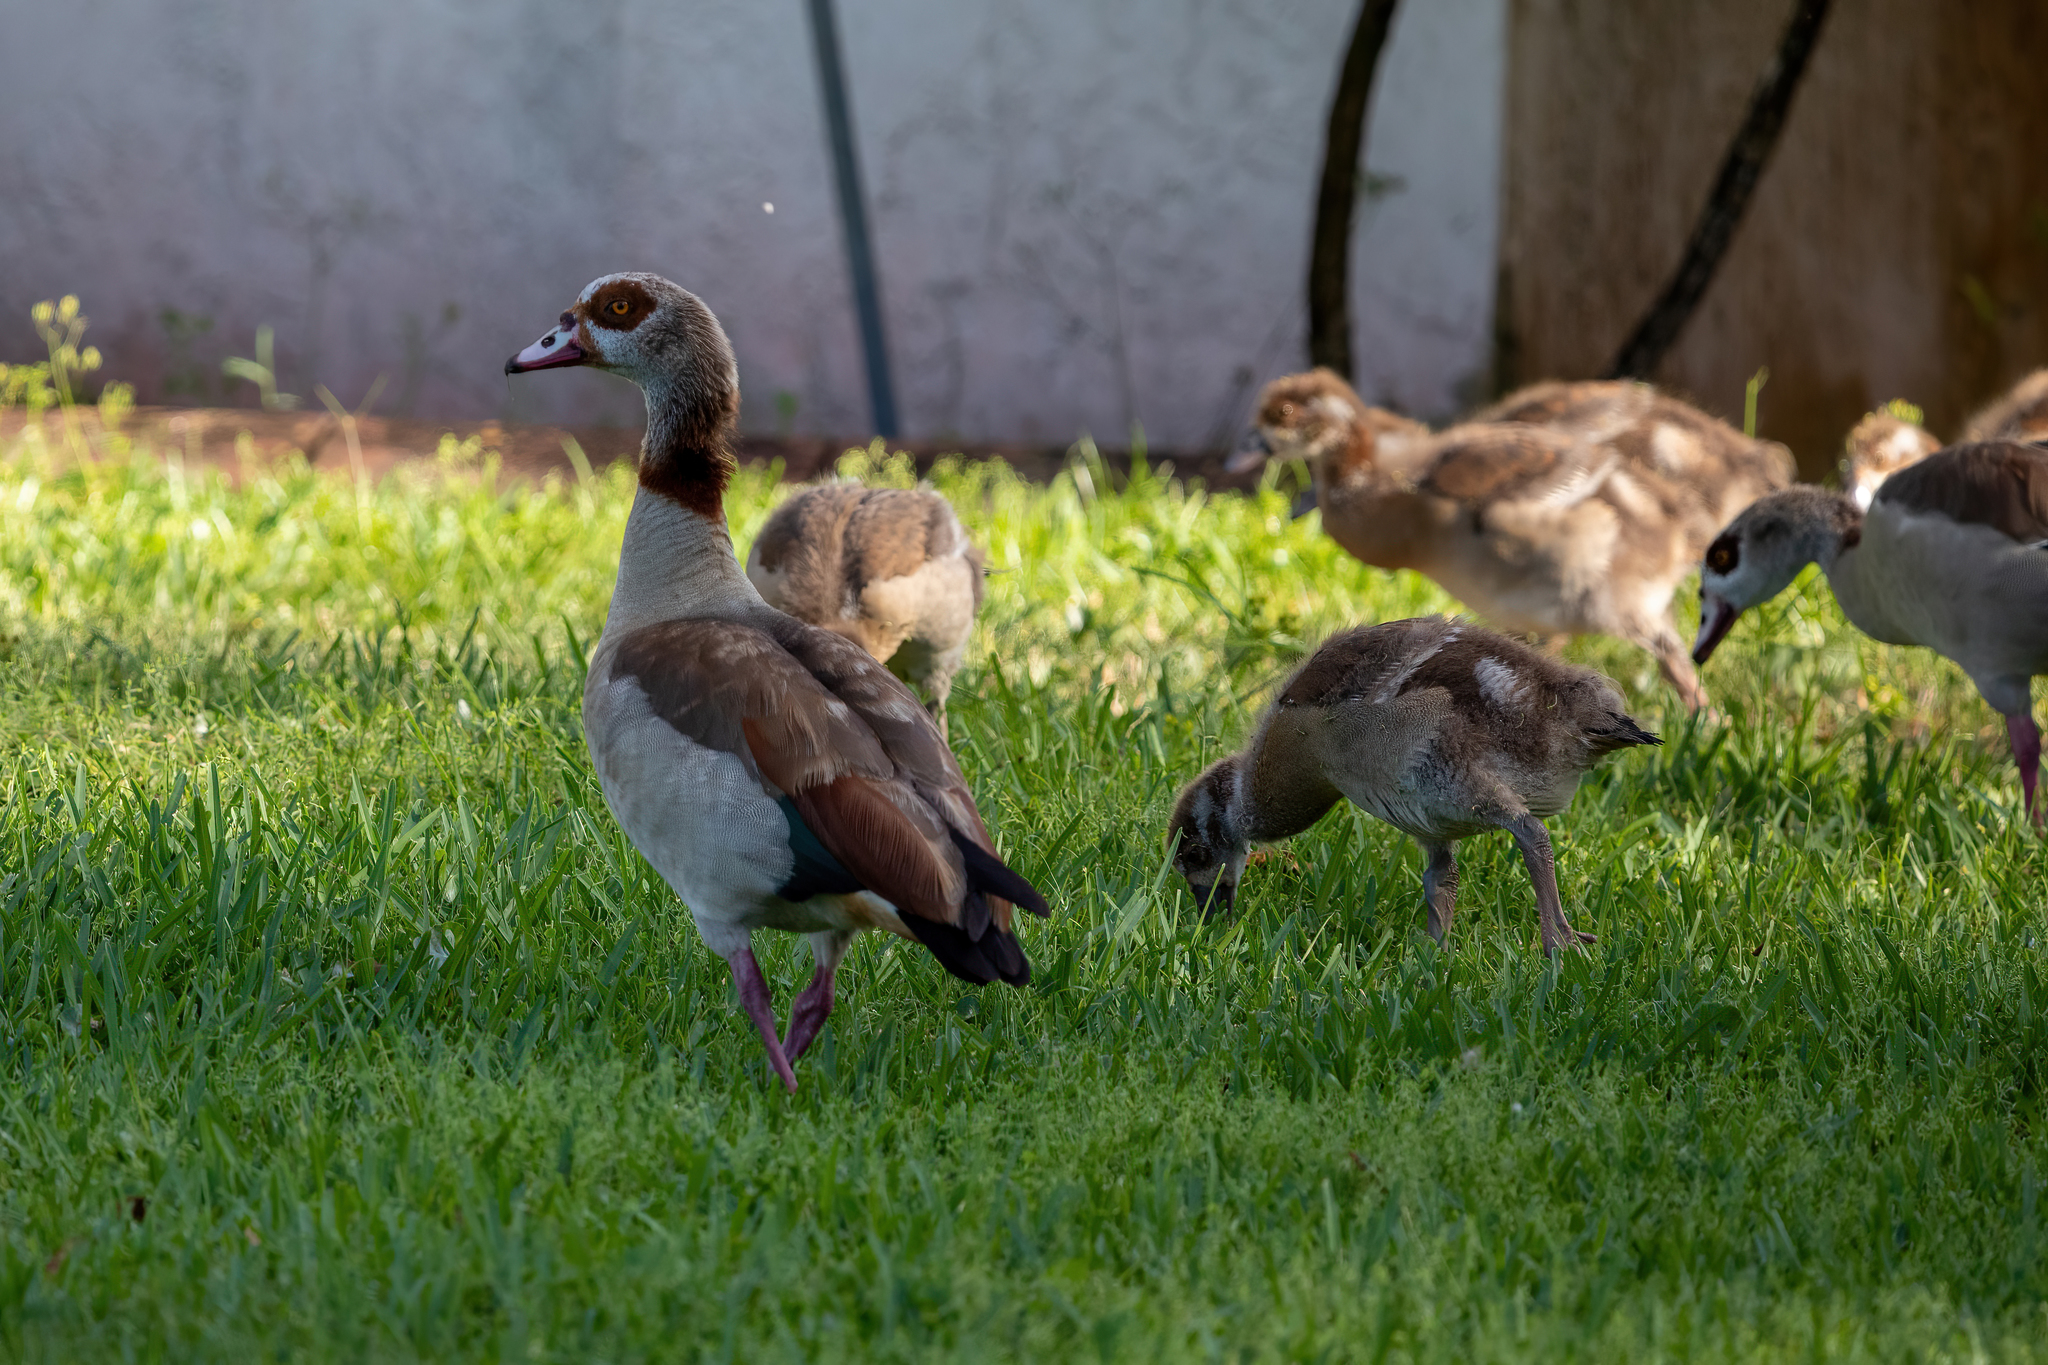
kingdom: Animalia
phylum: Chordata
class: Aves
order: Anseriformes
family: Anatidae
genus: Alopochen
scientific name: Alopochen aegyptiaca
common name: Egyptian goose
